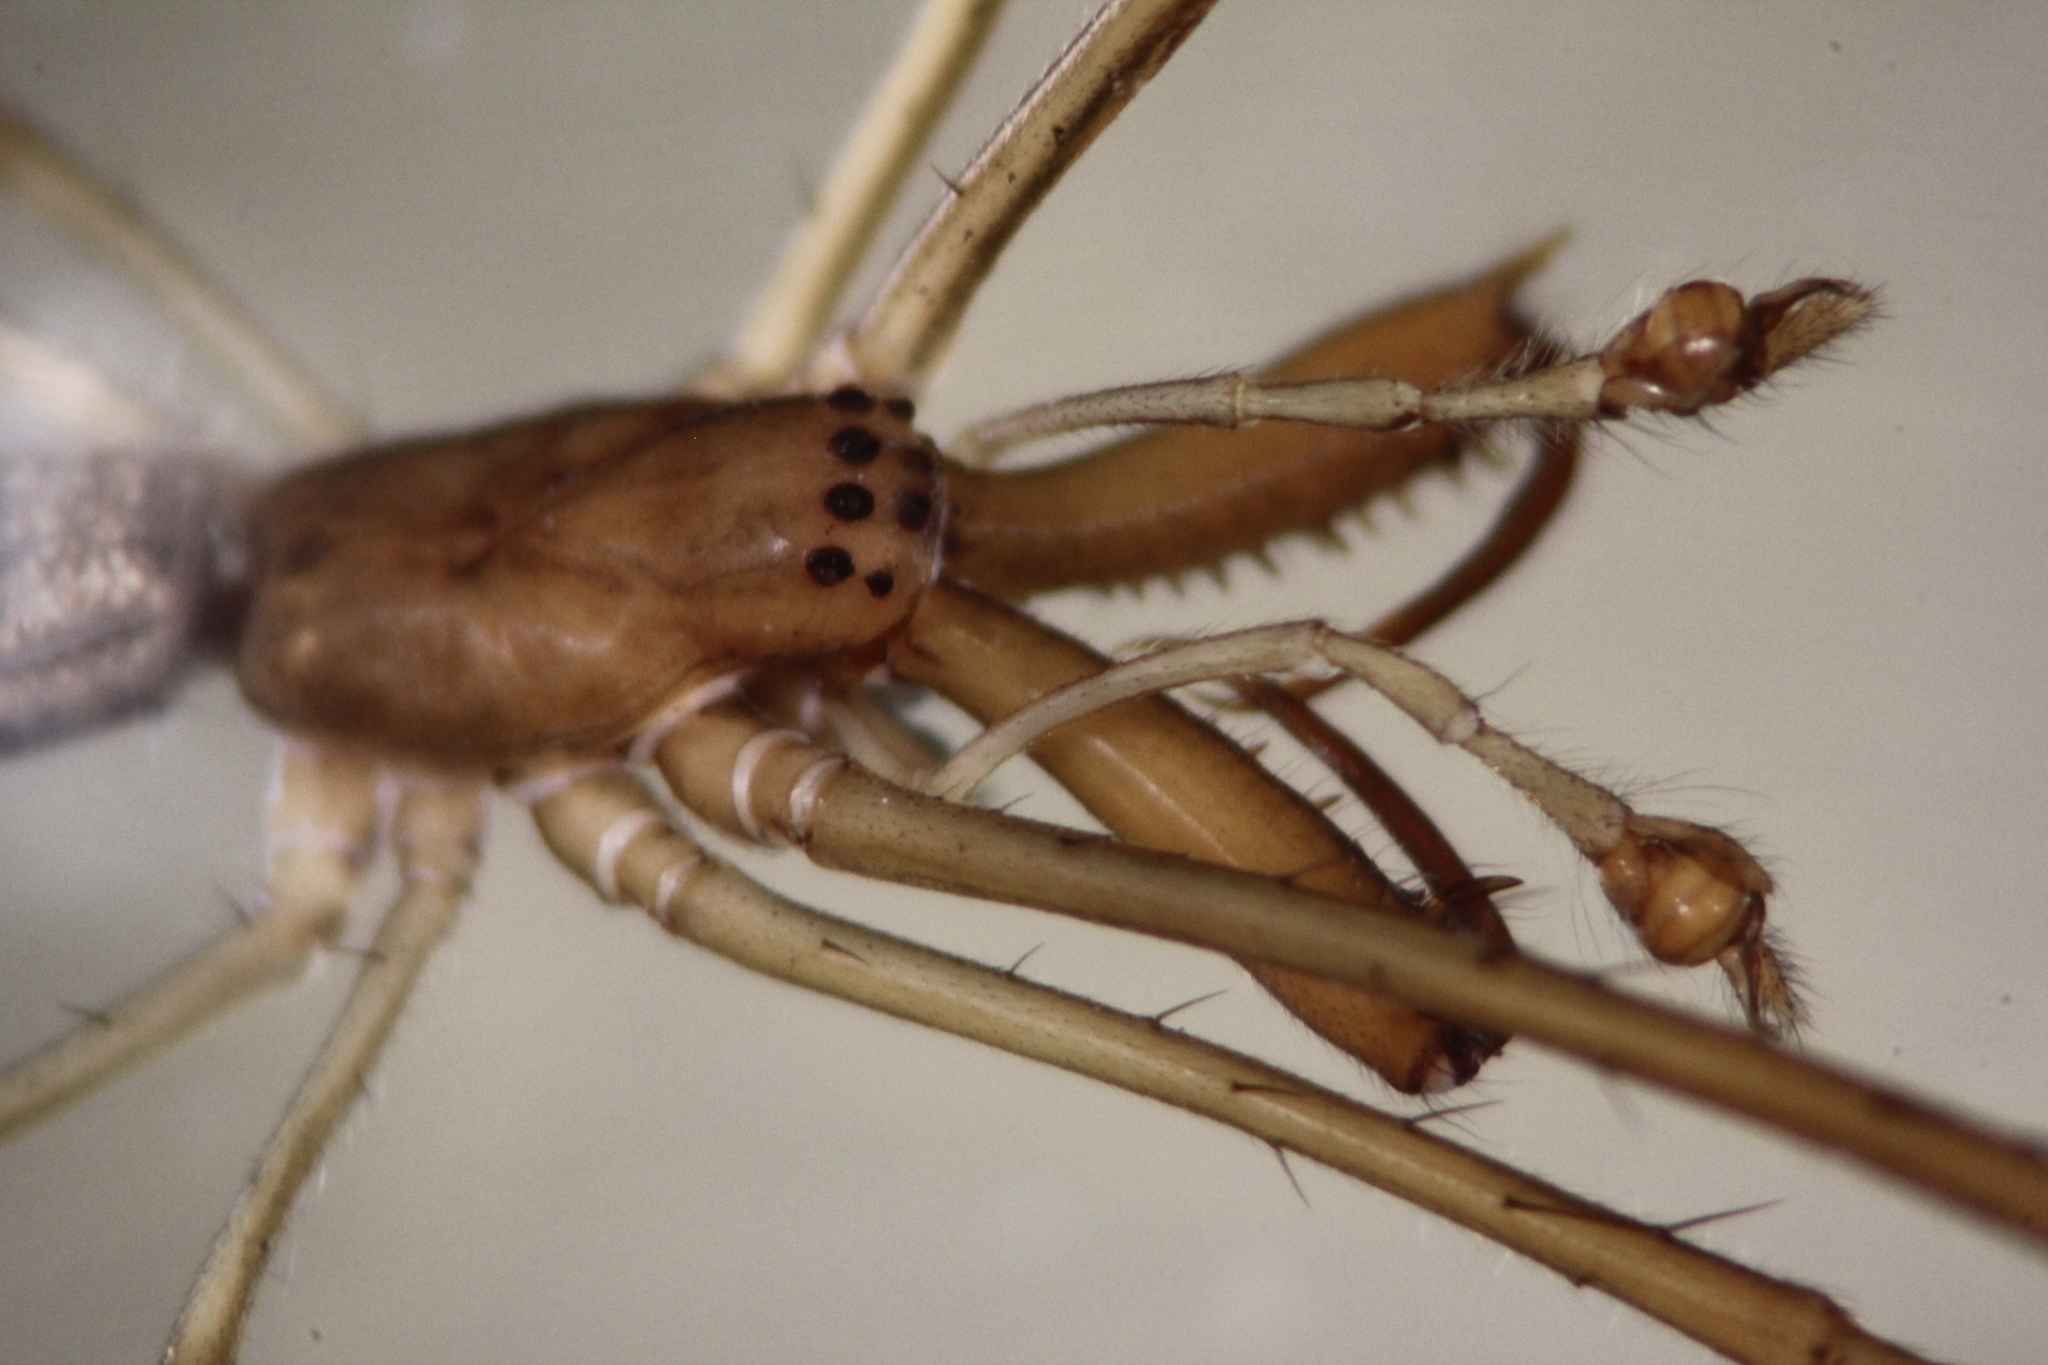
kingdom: Animalia
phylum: Arthropoda
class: Arachnida
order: Araneae
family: Tetragnathidae
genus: Tetragnatha
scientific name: Tetragnatha nitens
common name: Longjawed orb weavers
